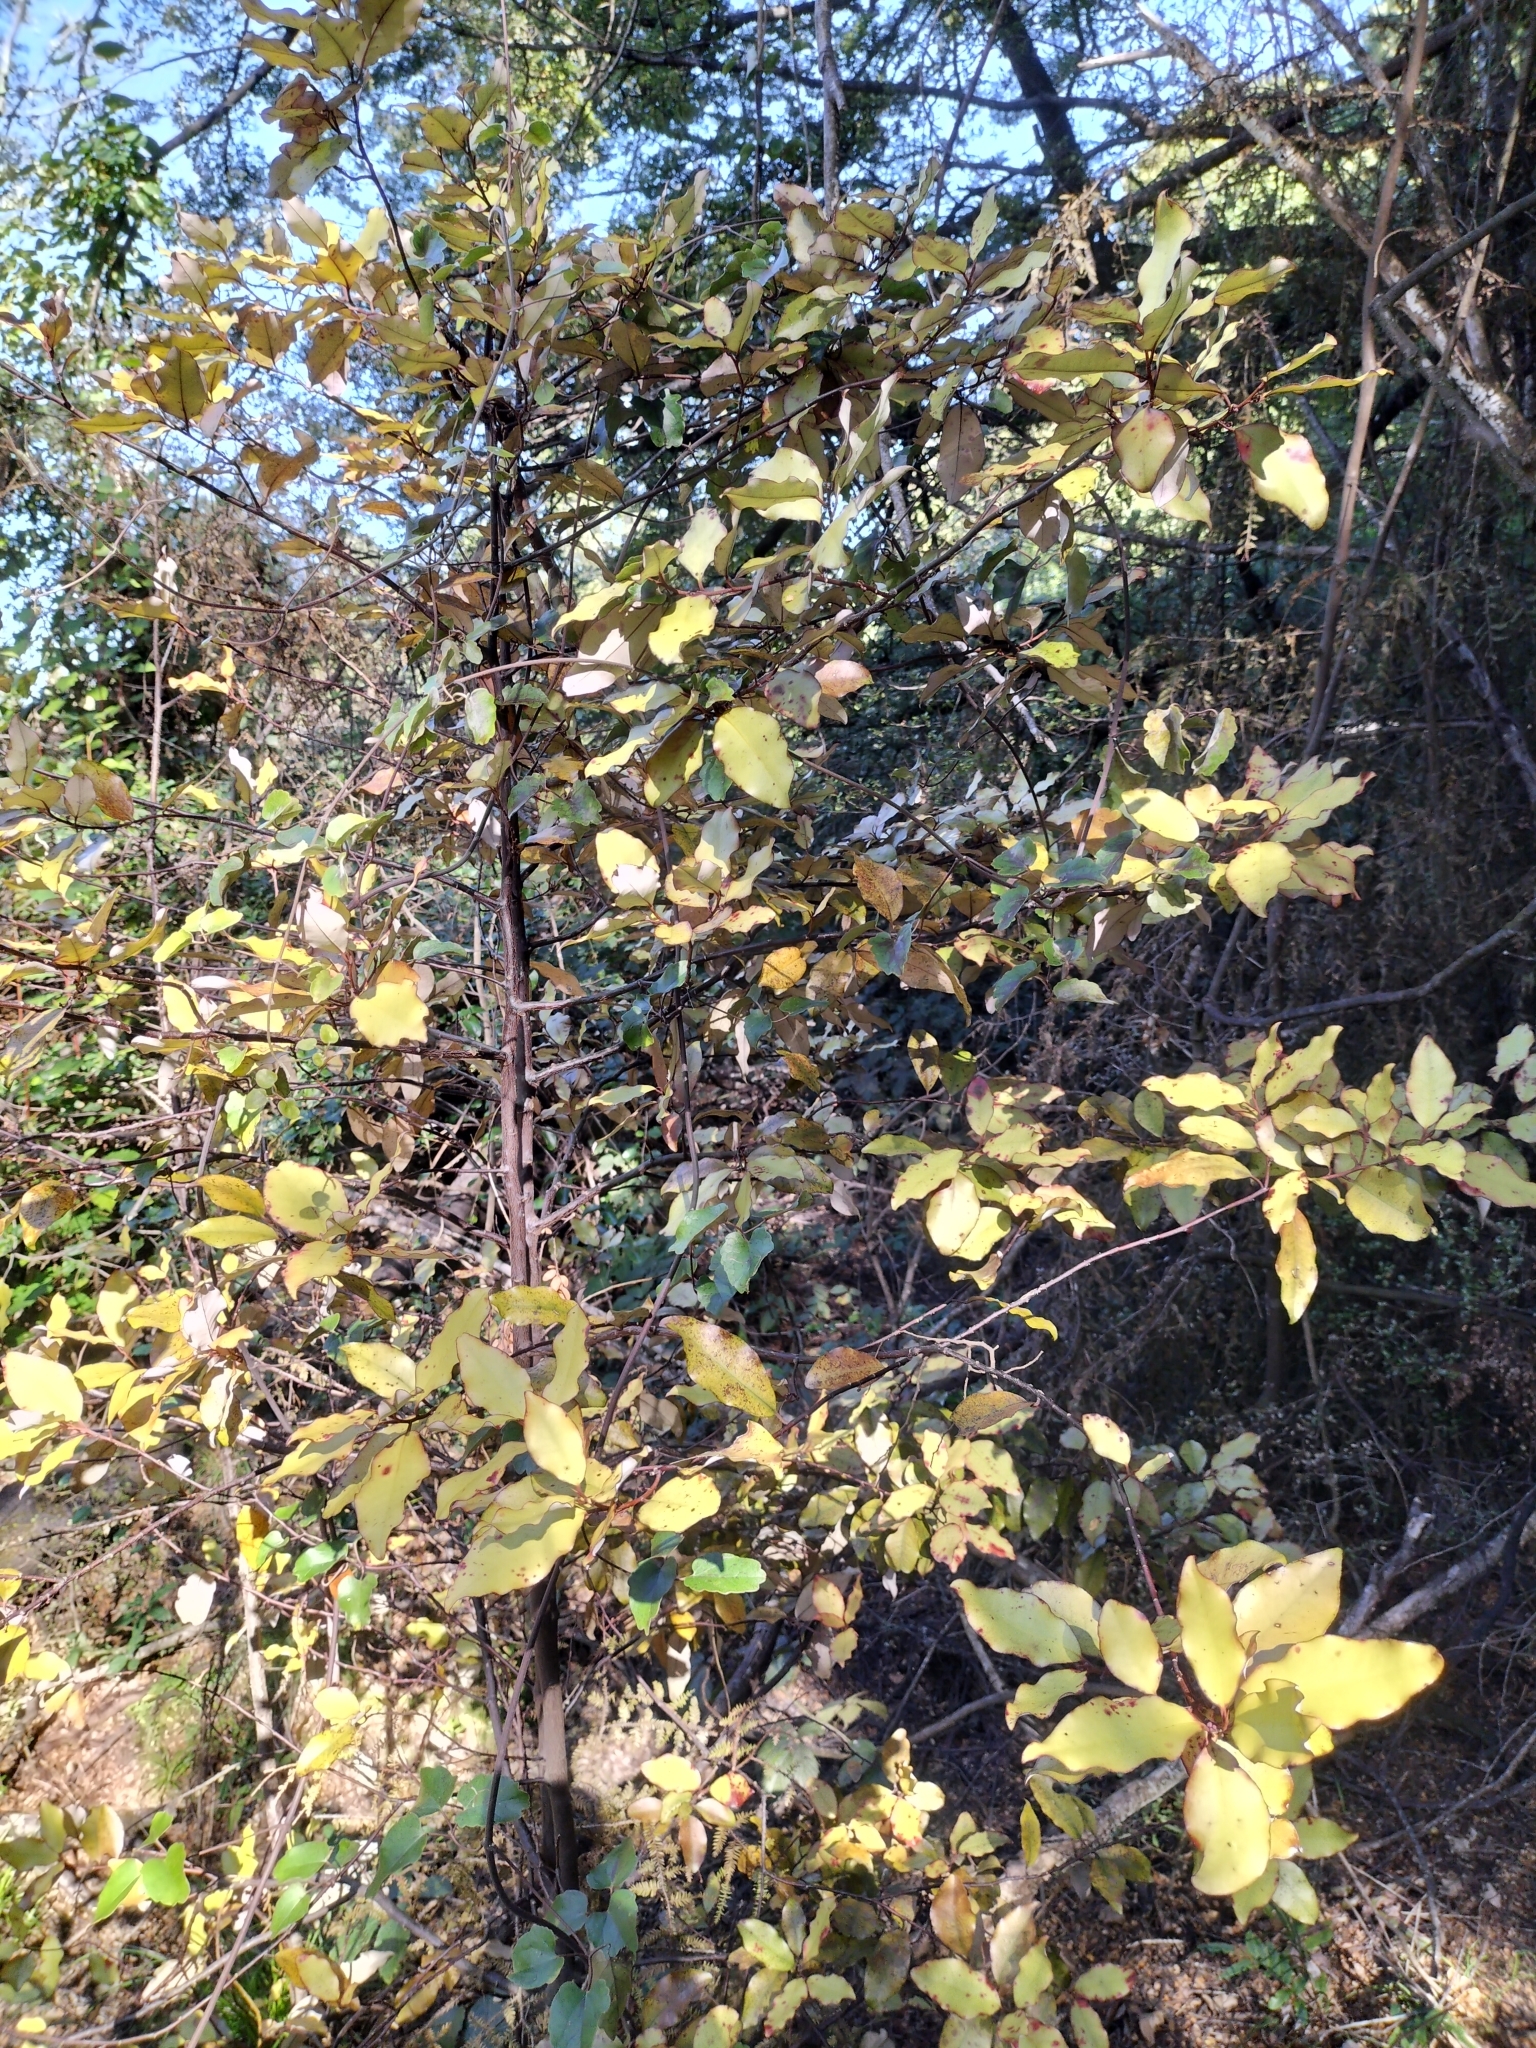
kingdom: Plantae
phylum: Tracheophyta
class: Magnoliopsida
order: Canellales
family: Winteraceae
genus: Pseudowintera
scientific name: Pseudowintera colorata
